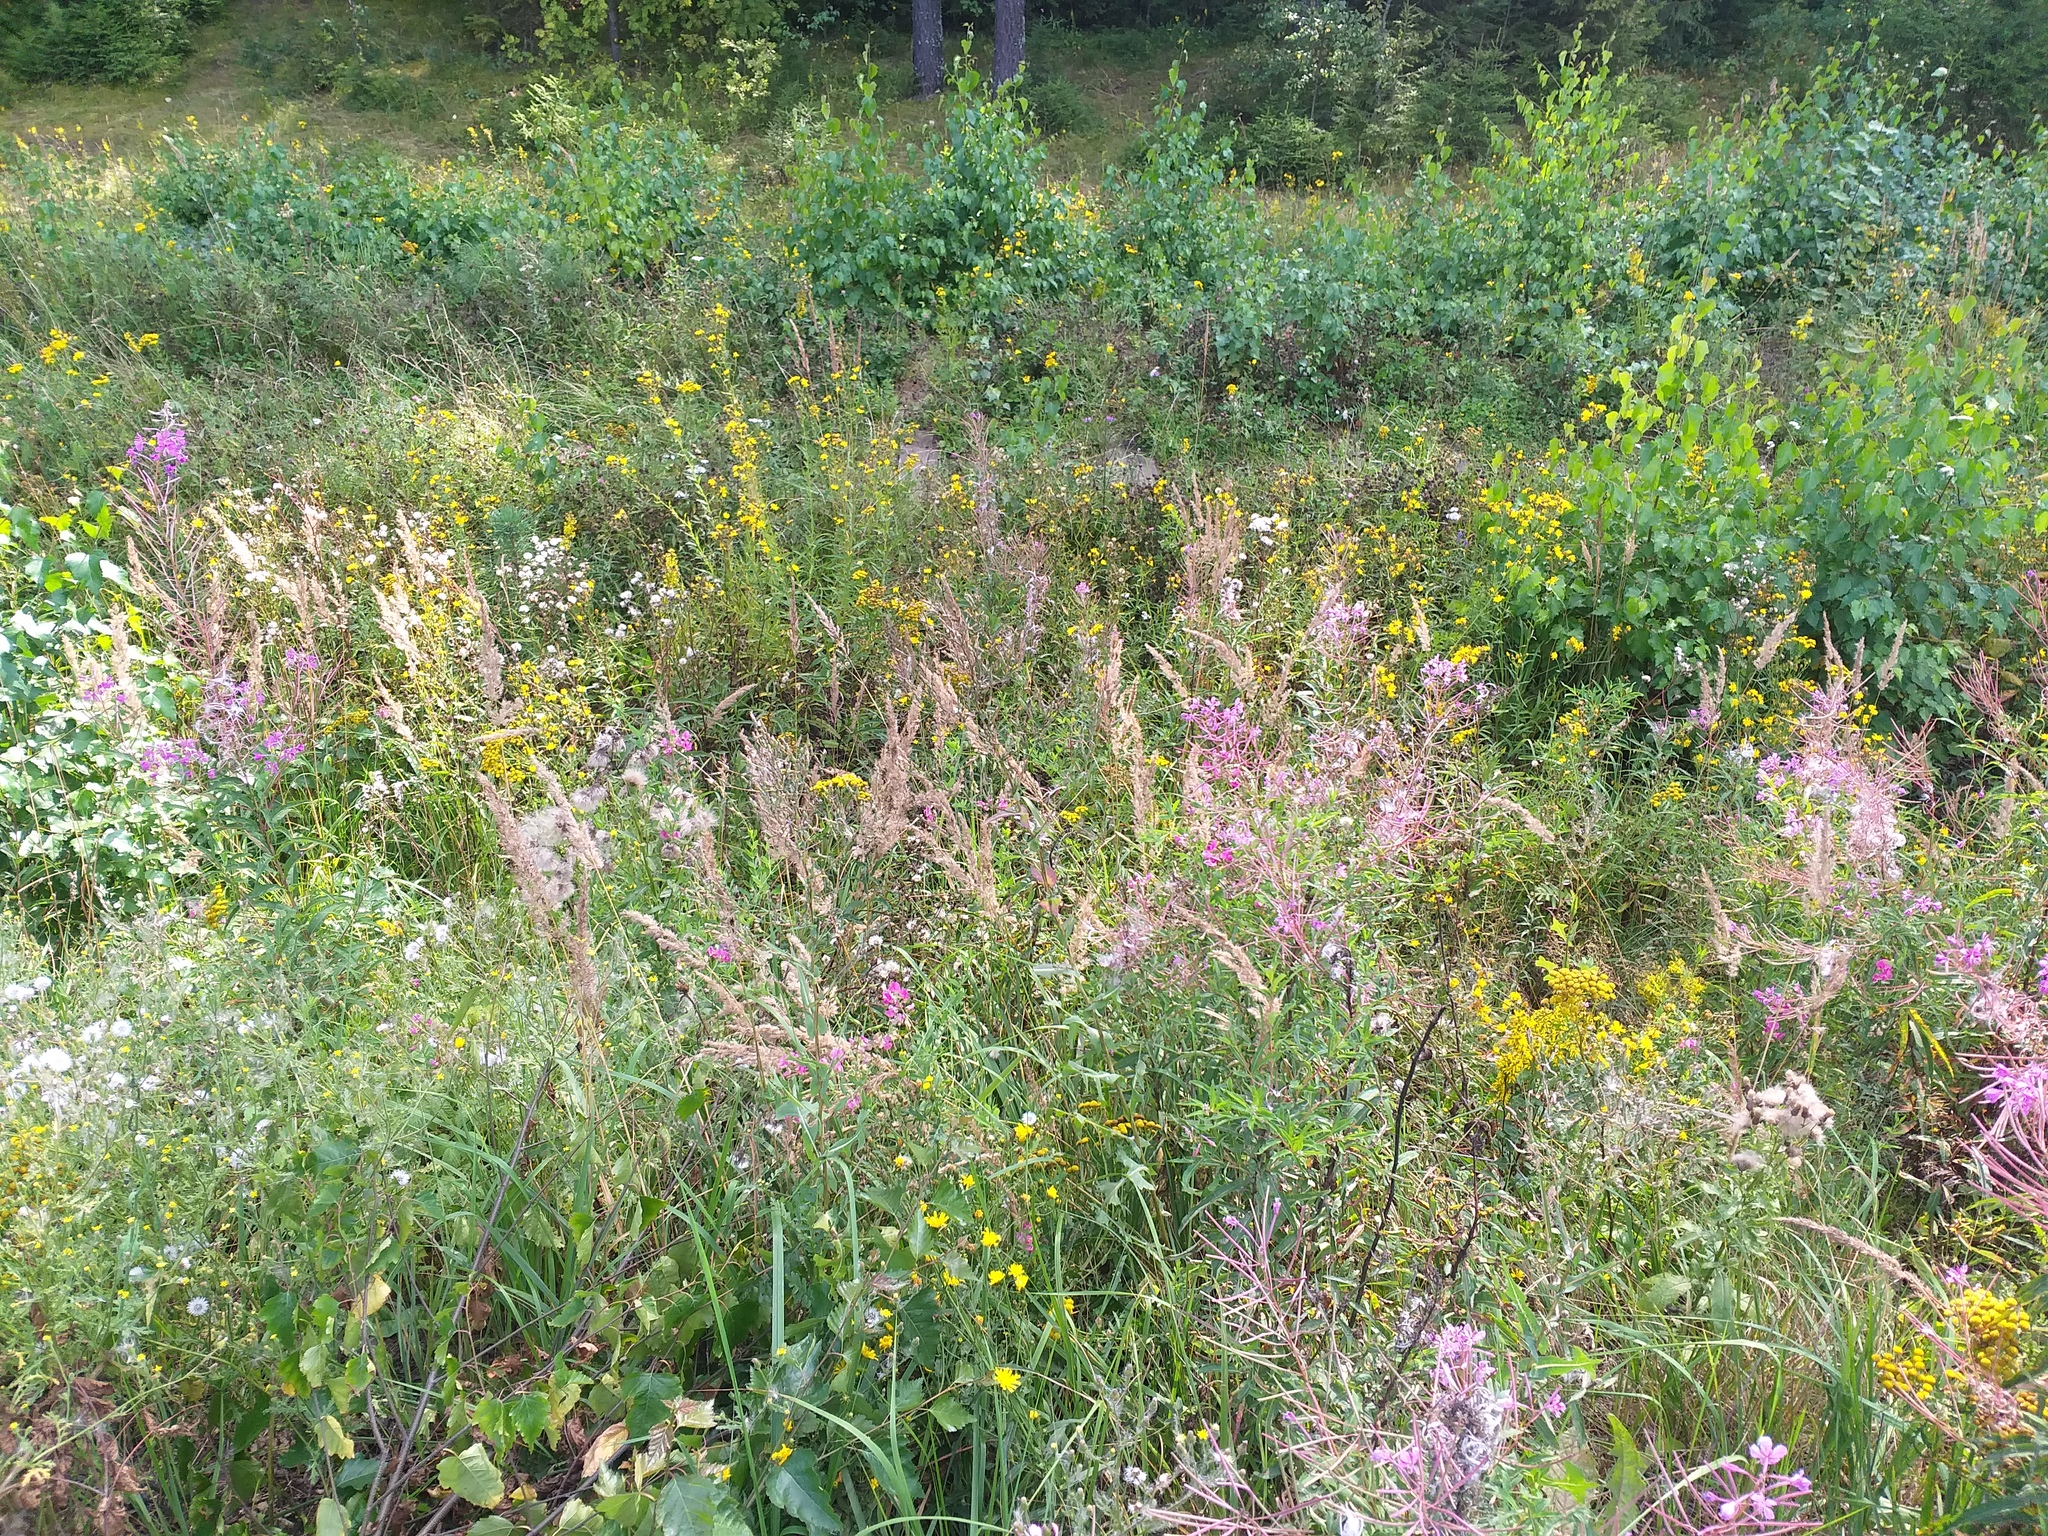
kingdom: Plantae
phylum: Tracheophyta
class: Liliopsida
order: Poales
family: Poaceae
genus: Calamagrostis
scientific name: Calamagrostis epigejos
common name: Wood small-reed
